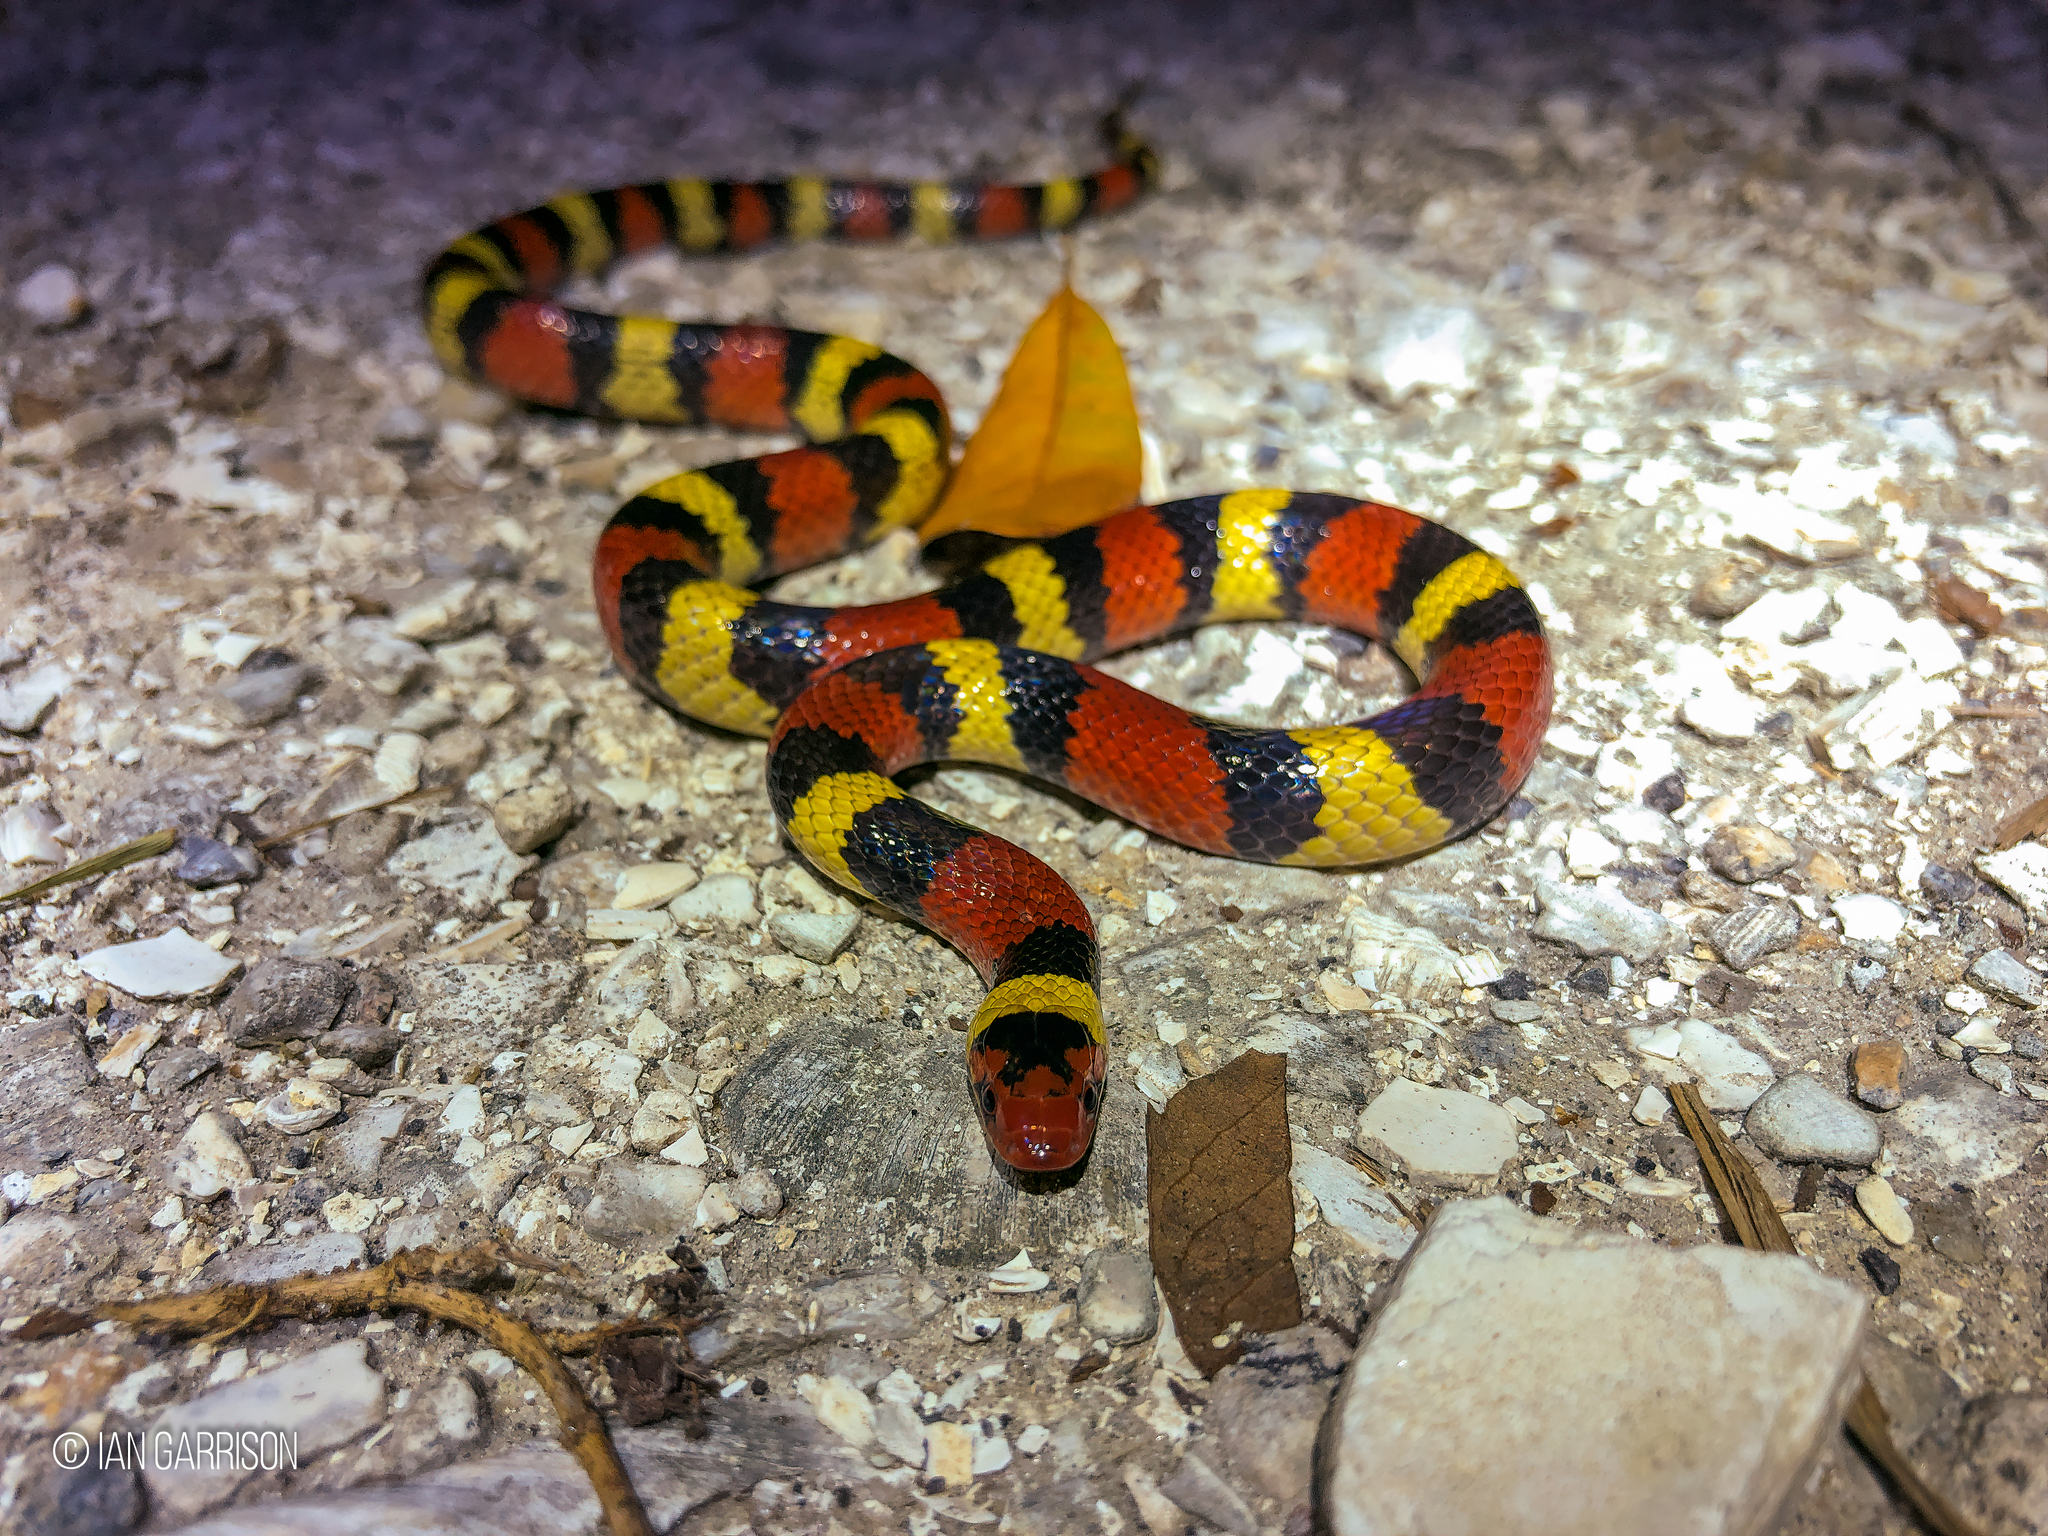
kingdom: Animalia
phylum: Chordata
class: Squamata
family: Colubridae
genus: Lampropeltis
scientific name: Lampropeltis elapsoides
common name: Scarlet kingsnake
